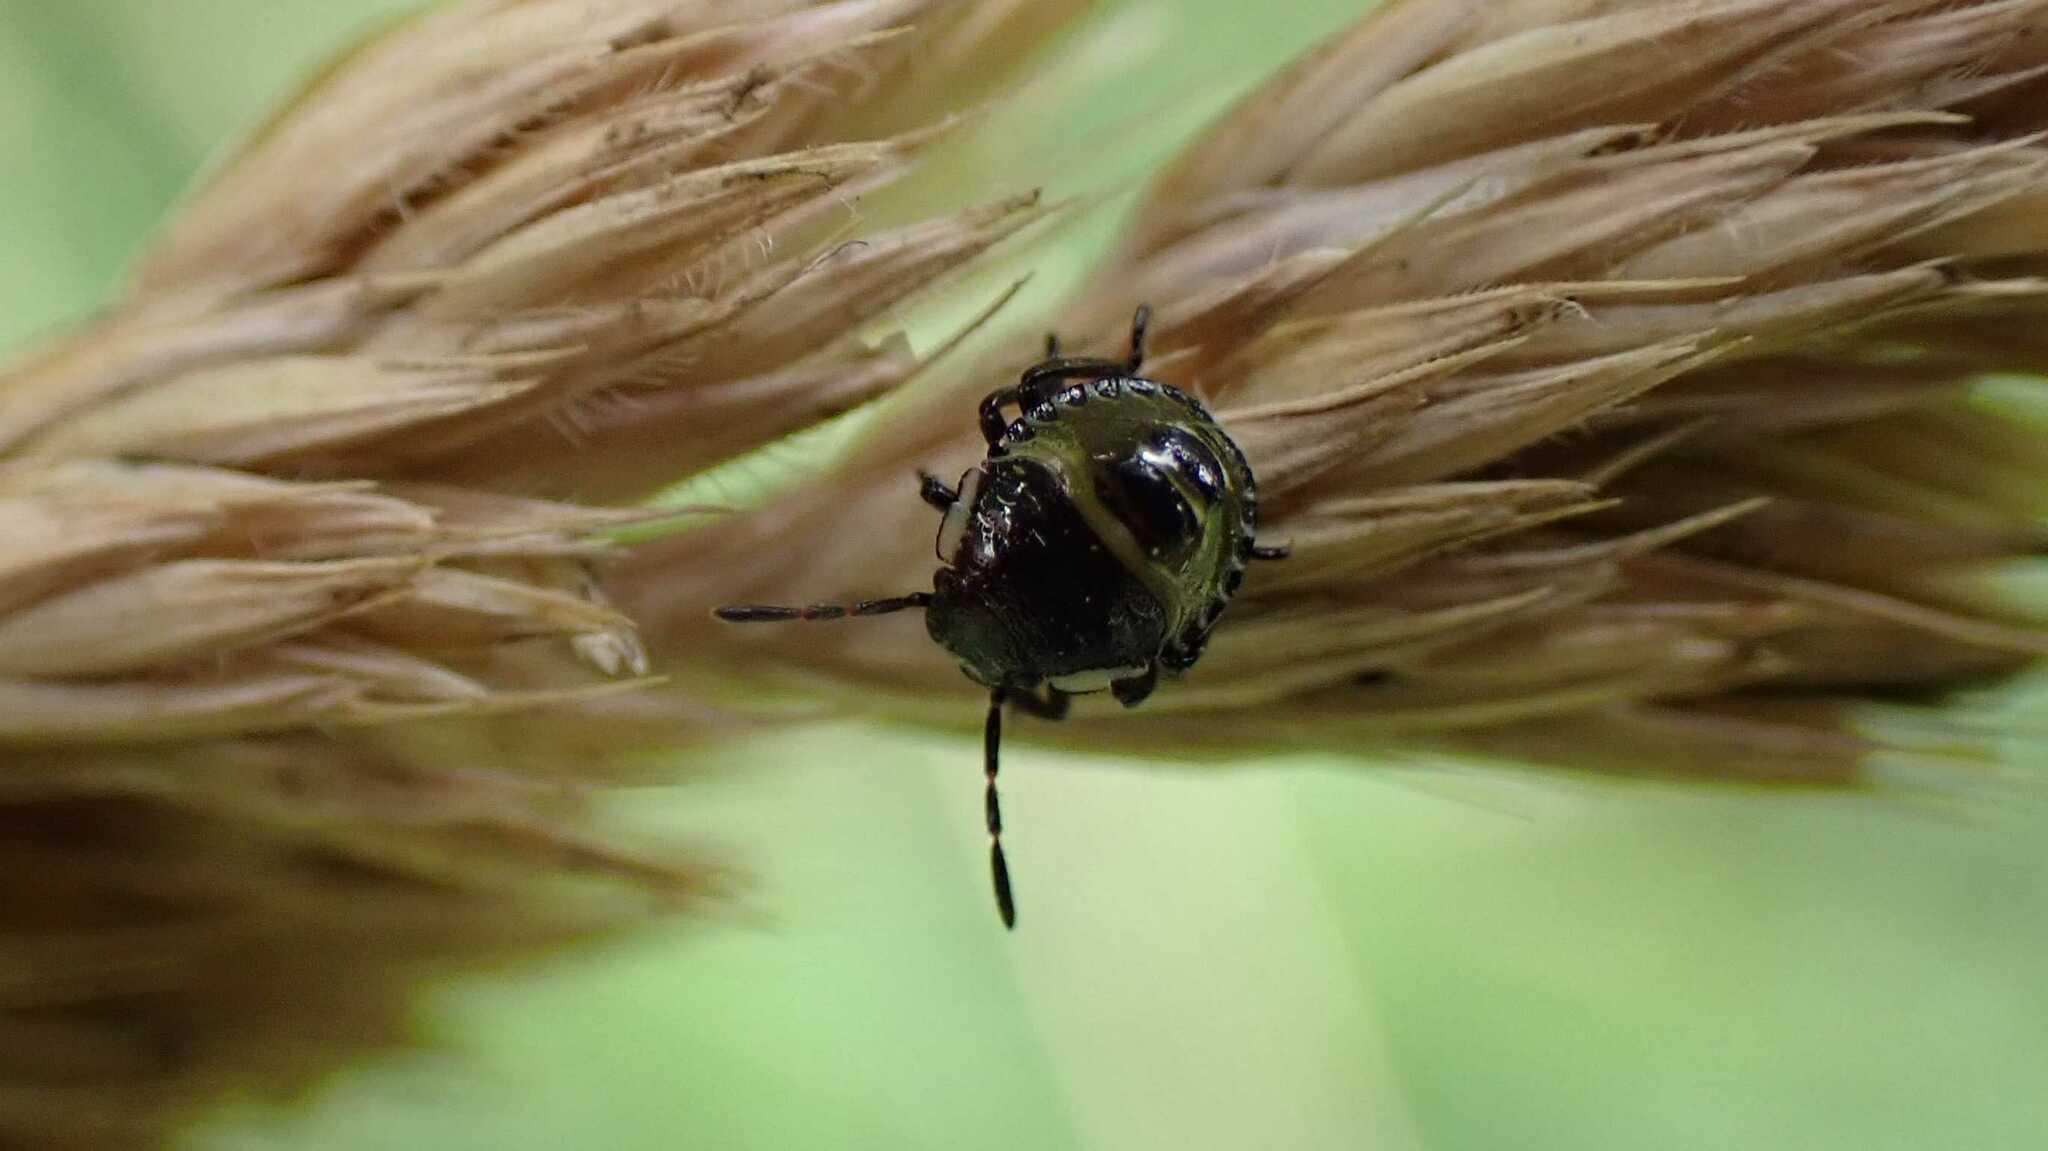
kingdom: Animalia
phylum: Arthropoda
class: Insecta
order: Hemiptera
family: Pentatomidae
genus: Palomena
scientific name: Palomena prasina
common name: Green shieldbug
